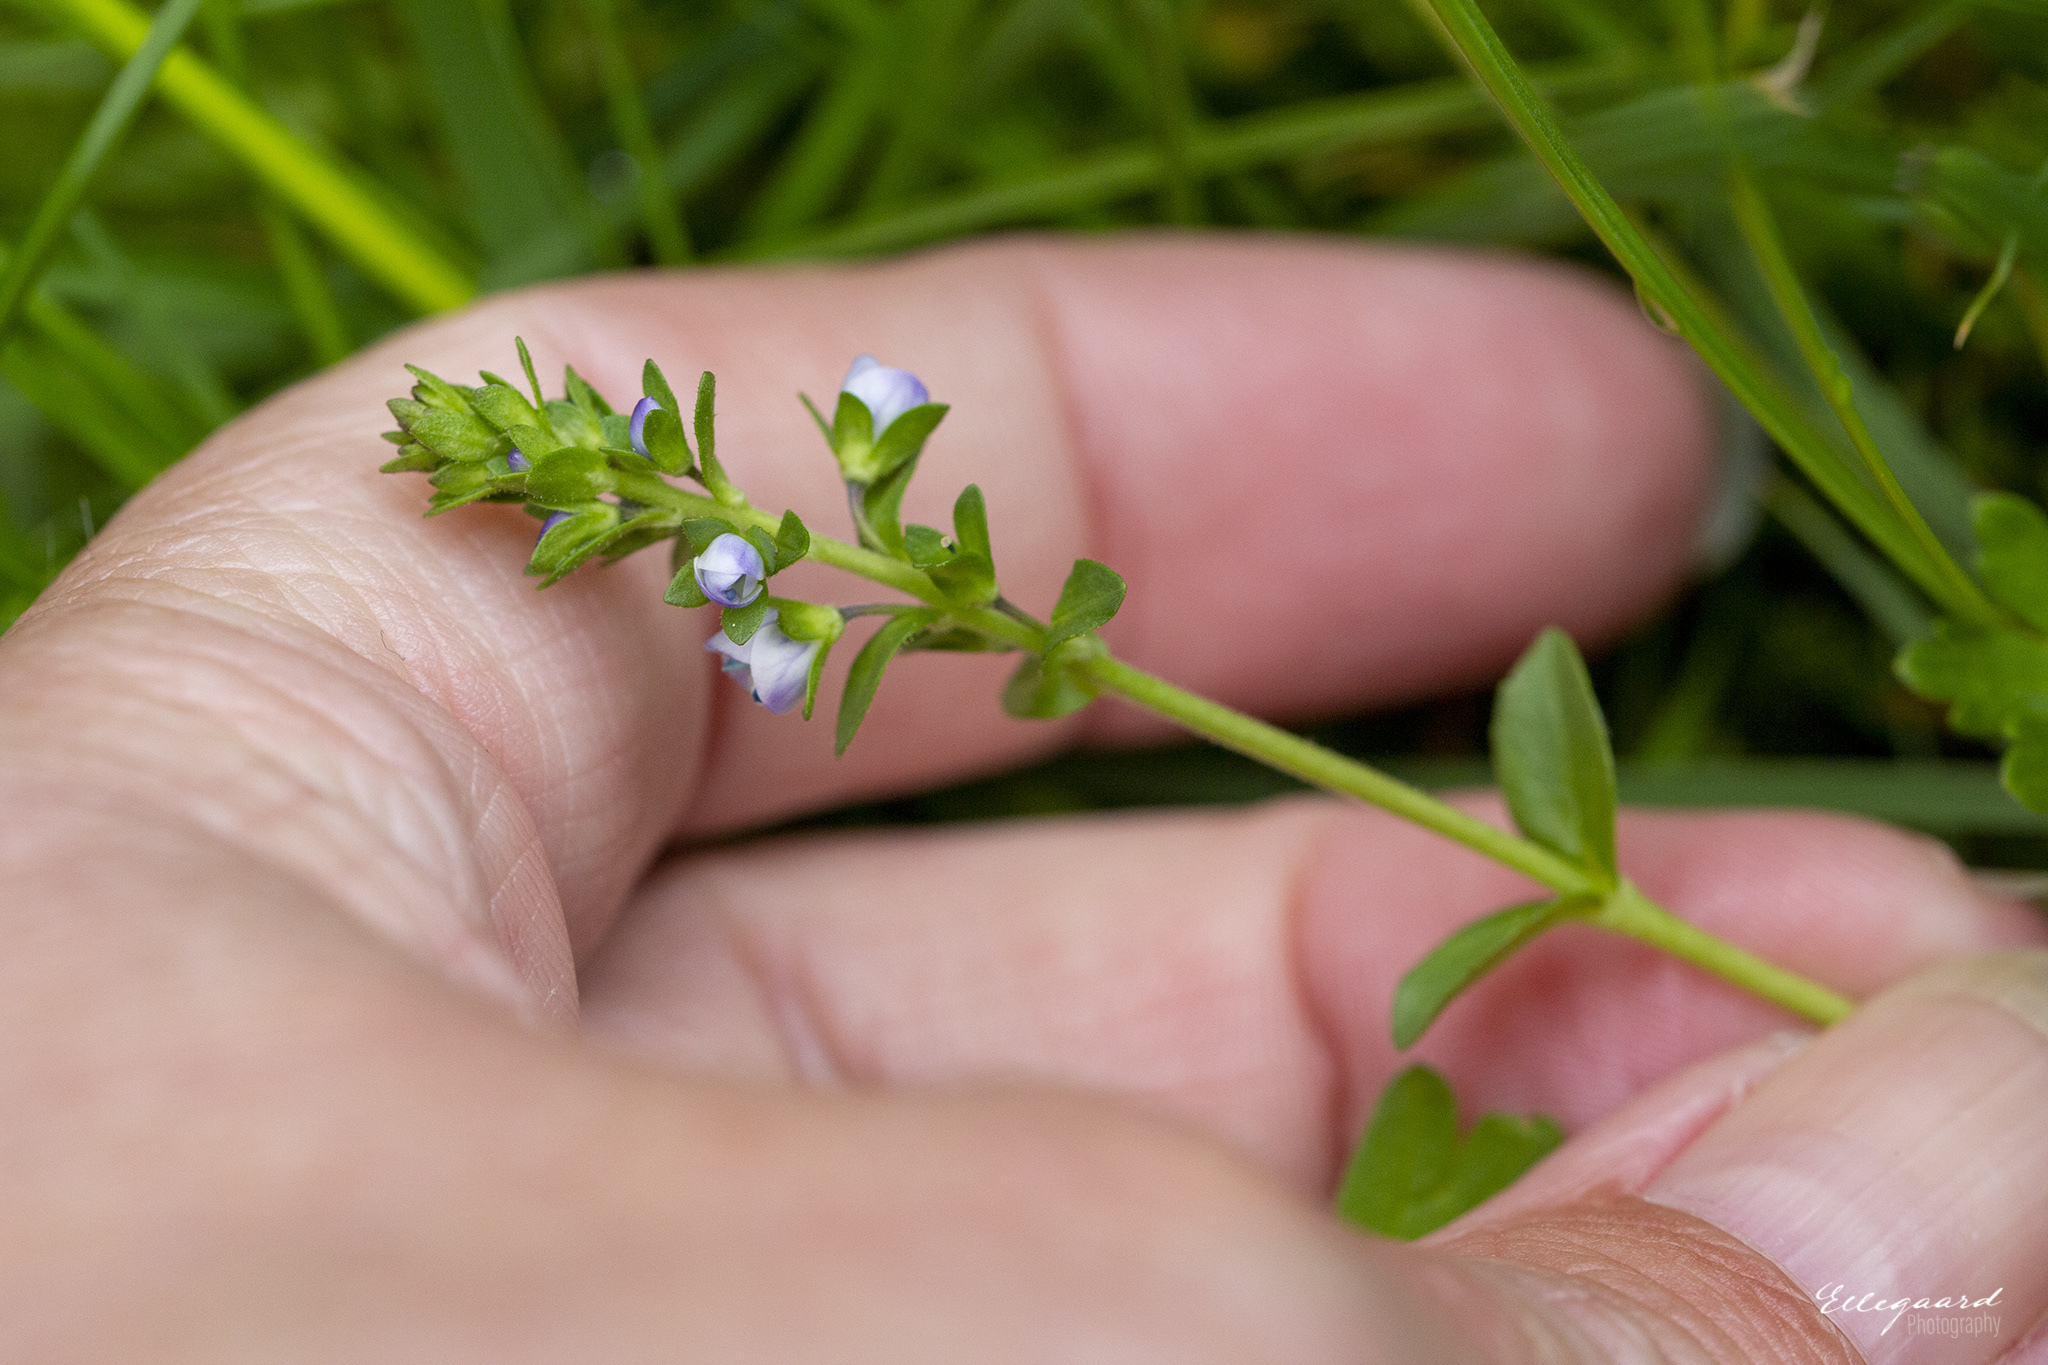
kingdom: Plantae
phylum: Tracheophyta
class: Magnoliopsida
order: Lamiales
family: Plantaginaceae
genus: Veronica
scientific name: Veronica serpyllifolia
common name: Thyme-leaved speedwell
